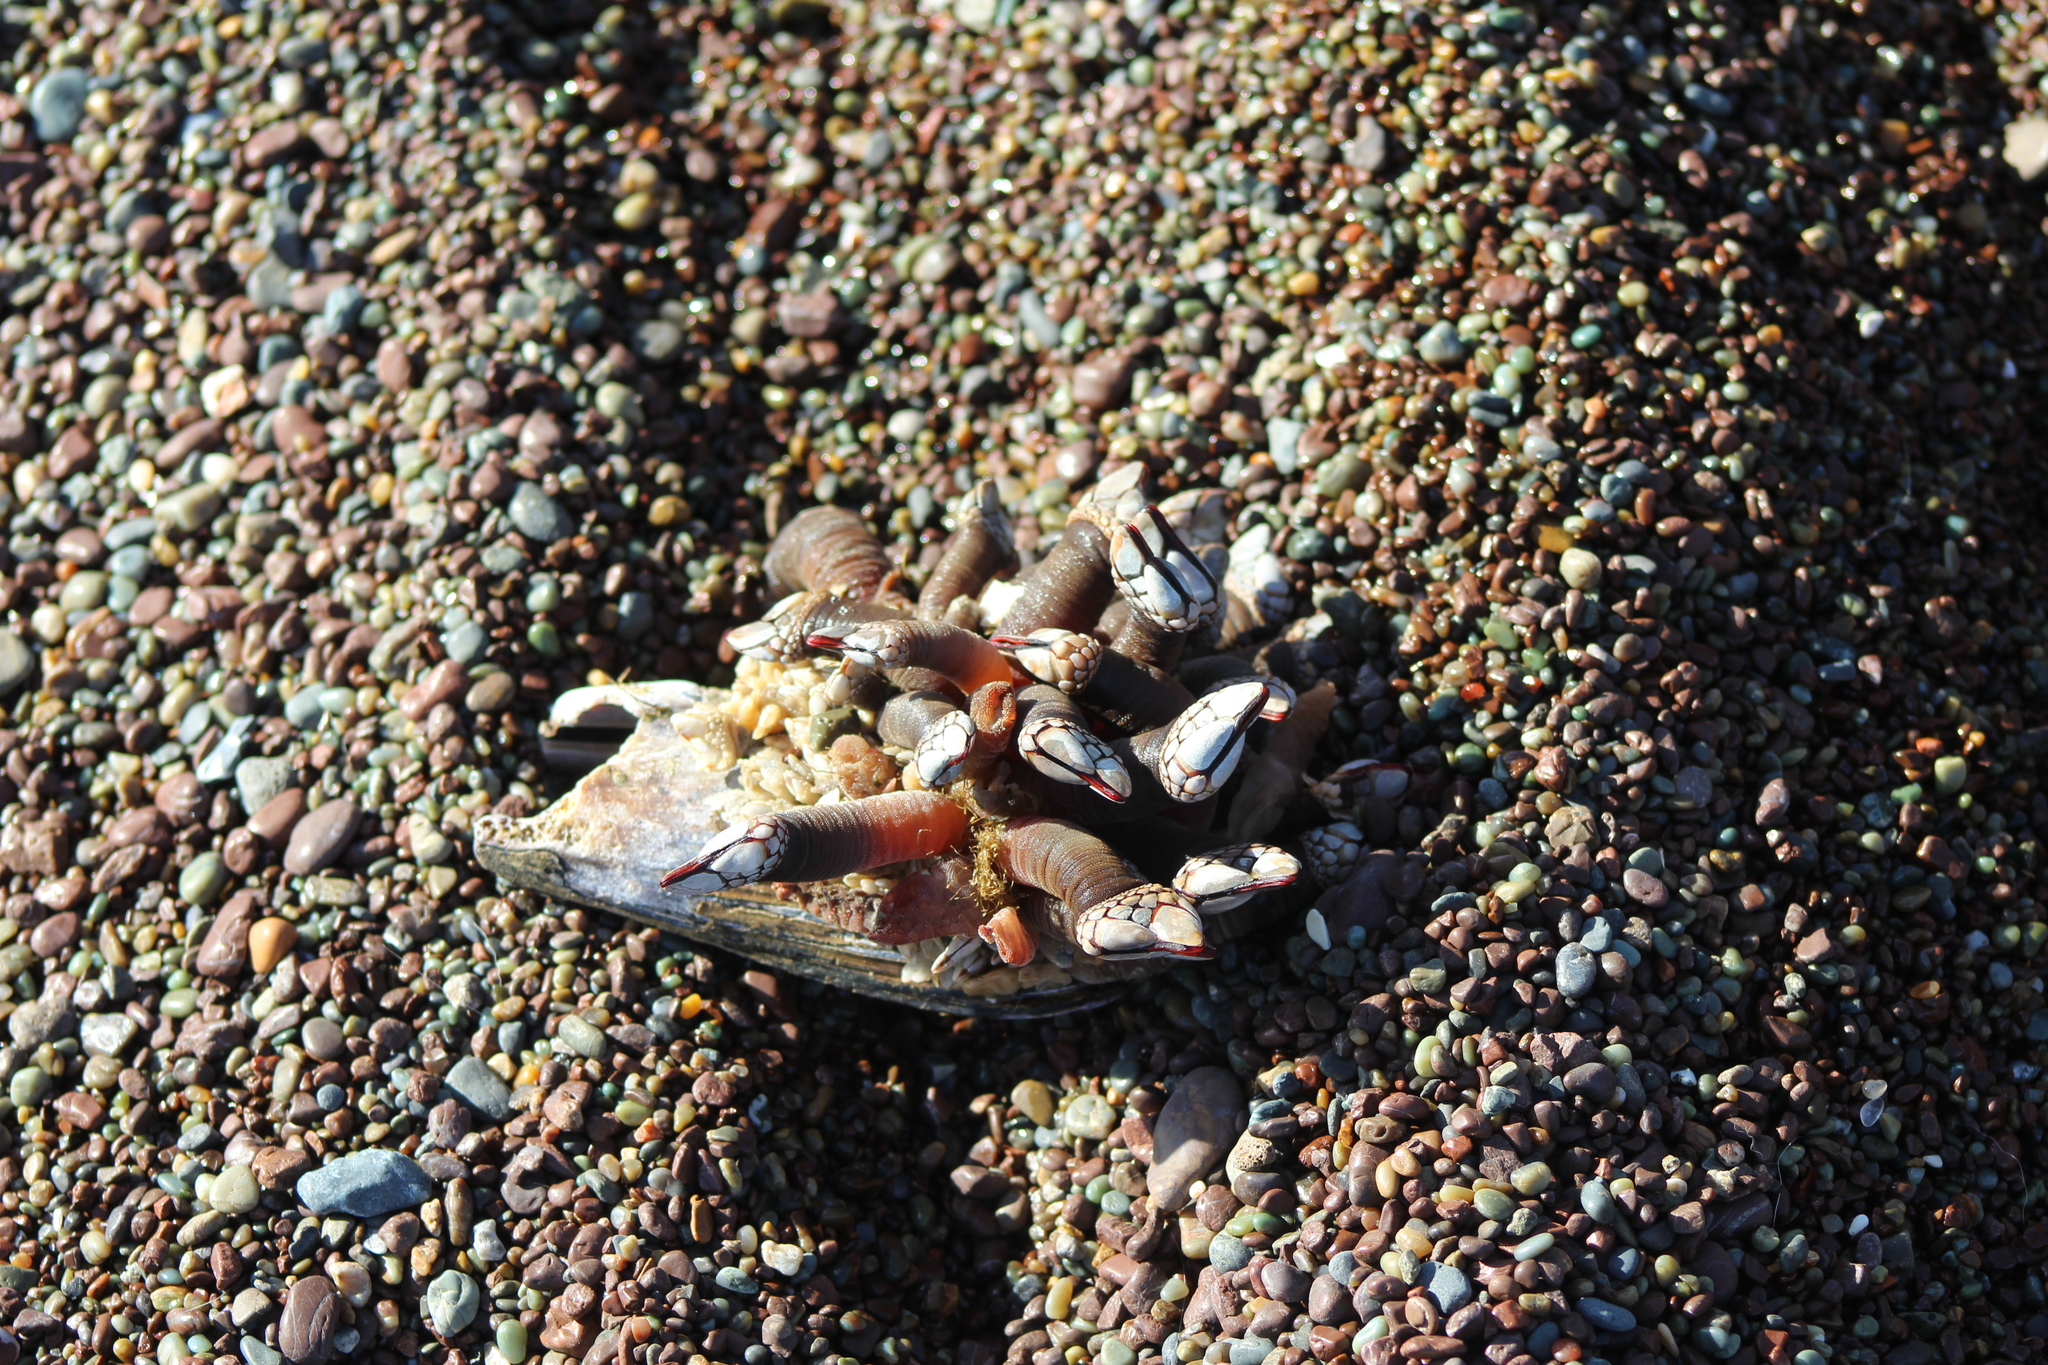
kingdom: Animalia
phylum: Arthropoda
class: Maxillopoda
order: Pedunculata
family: Pollicipedidae
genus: Pollicipes
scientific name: Pollicipes polymerus
